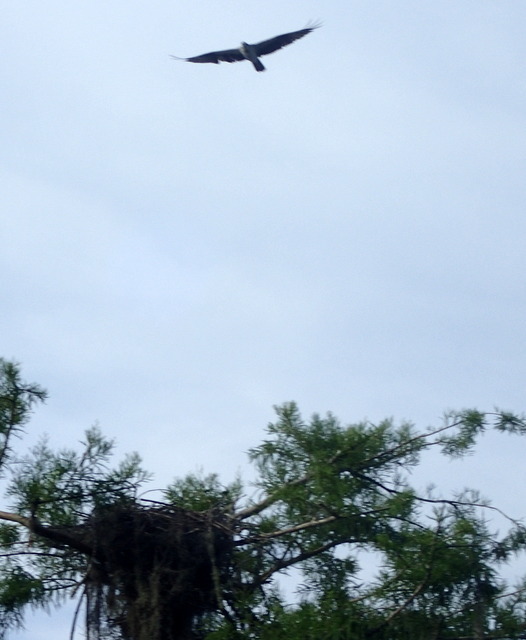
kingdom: Animalia
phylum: Chordata
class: Aves
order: Accipitriformes
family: Pandionidae
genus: Pandion
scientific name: Pandion haliaetus
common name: Osprey
